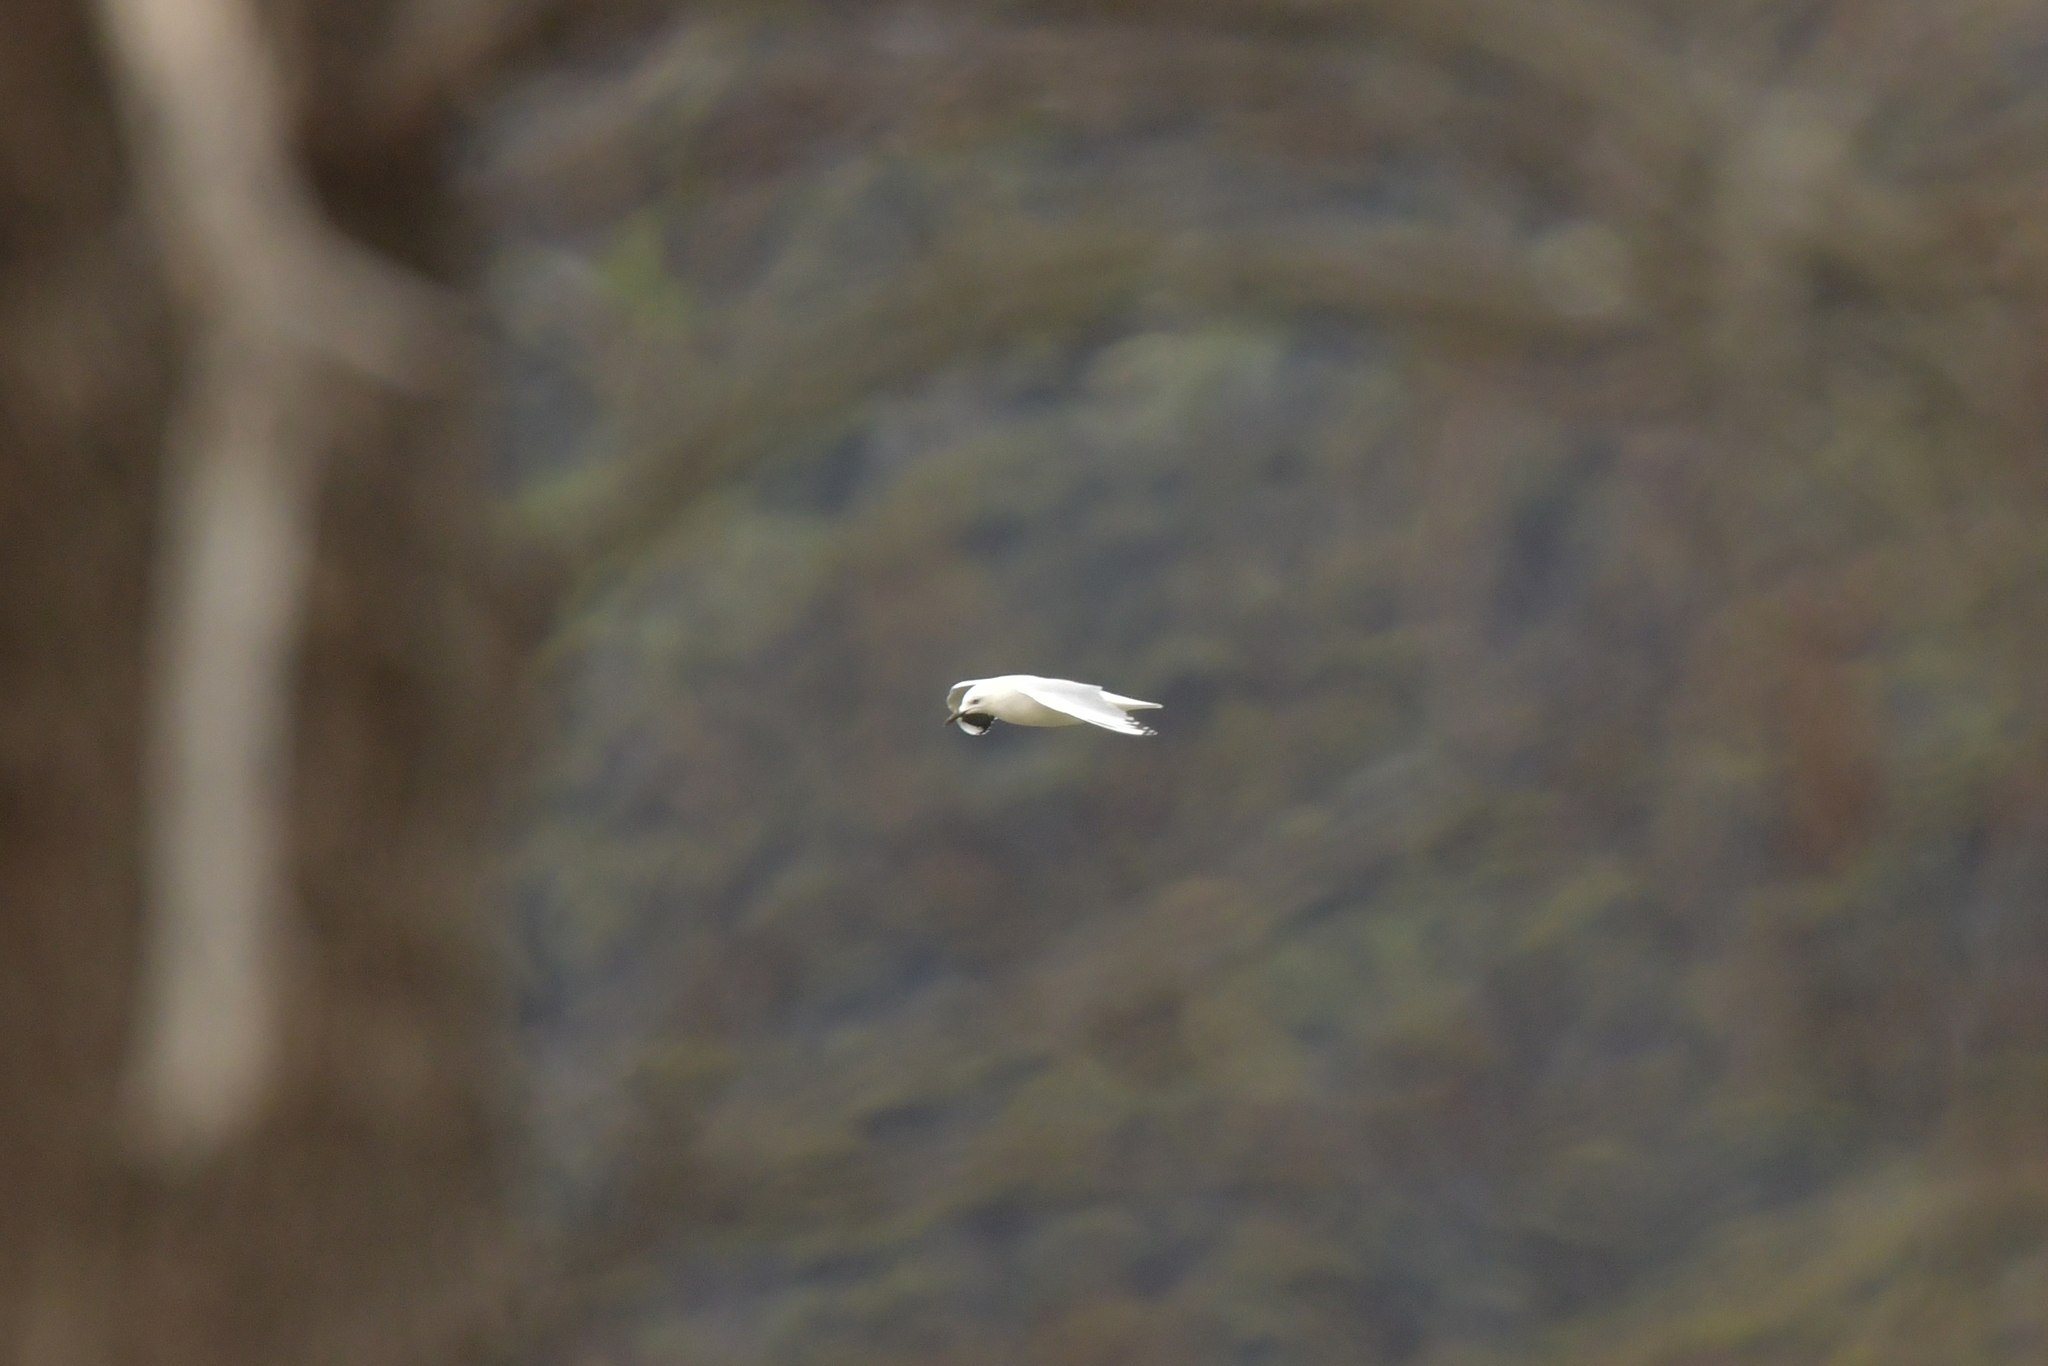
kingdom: Animalia
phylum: Chordata
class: Aves
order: Charadriiformes
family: Laridae
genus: Chroicocephalus
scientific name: Chroicocephalus bulleri
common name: Black-billed gull
